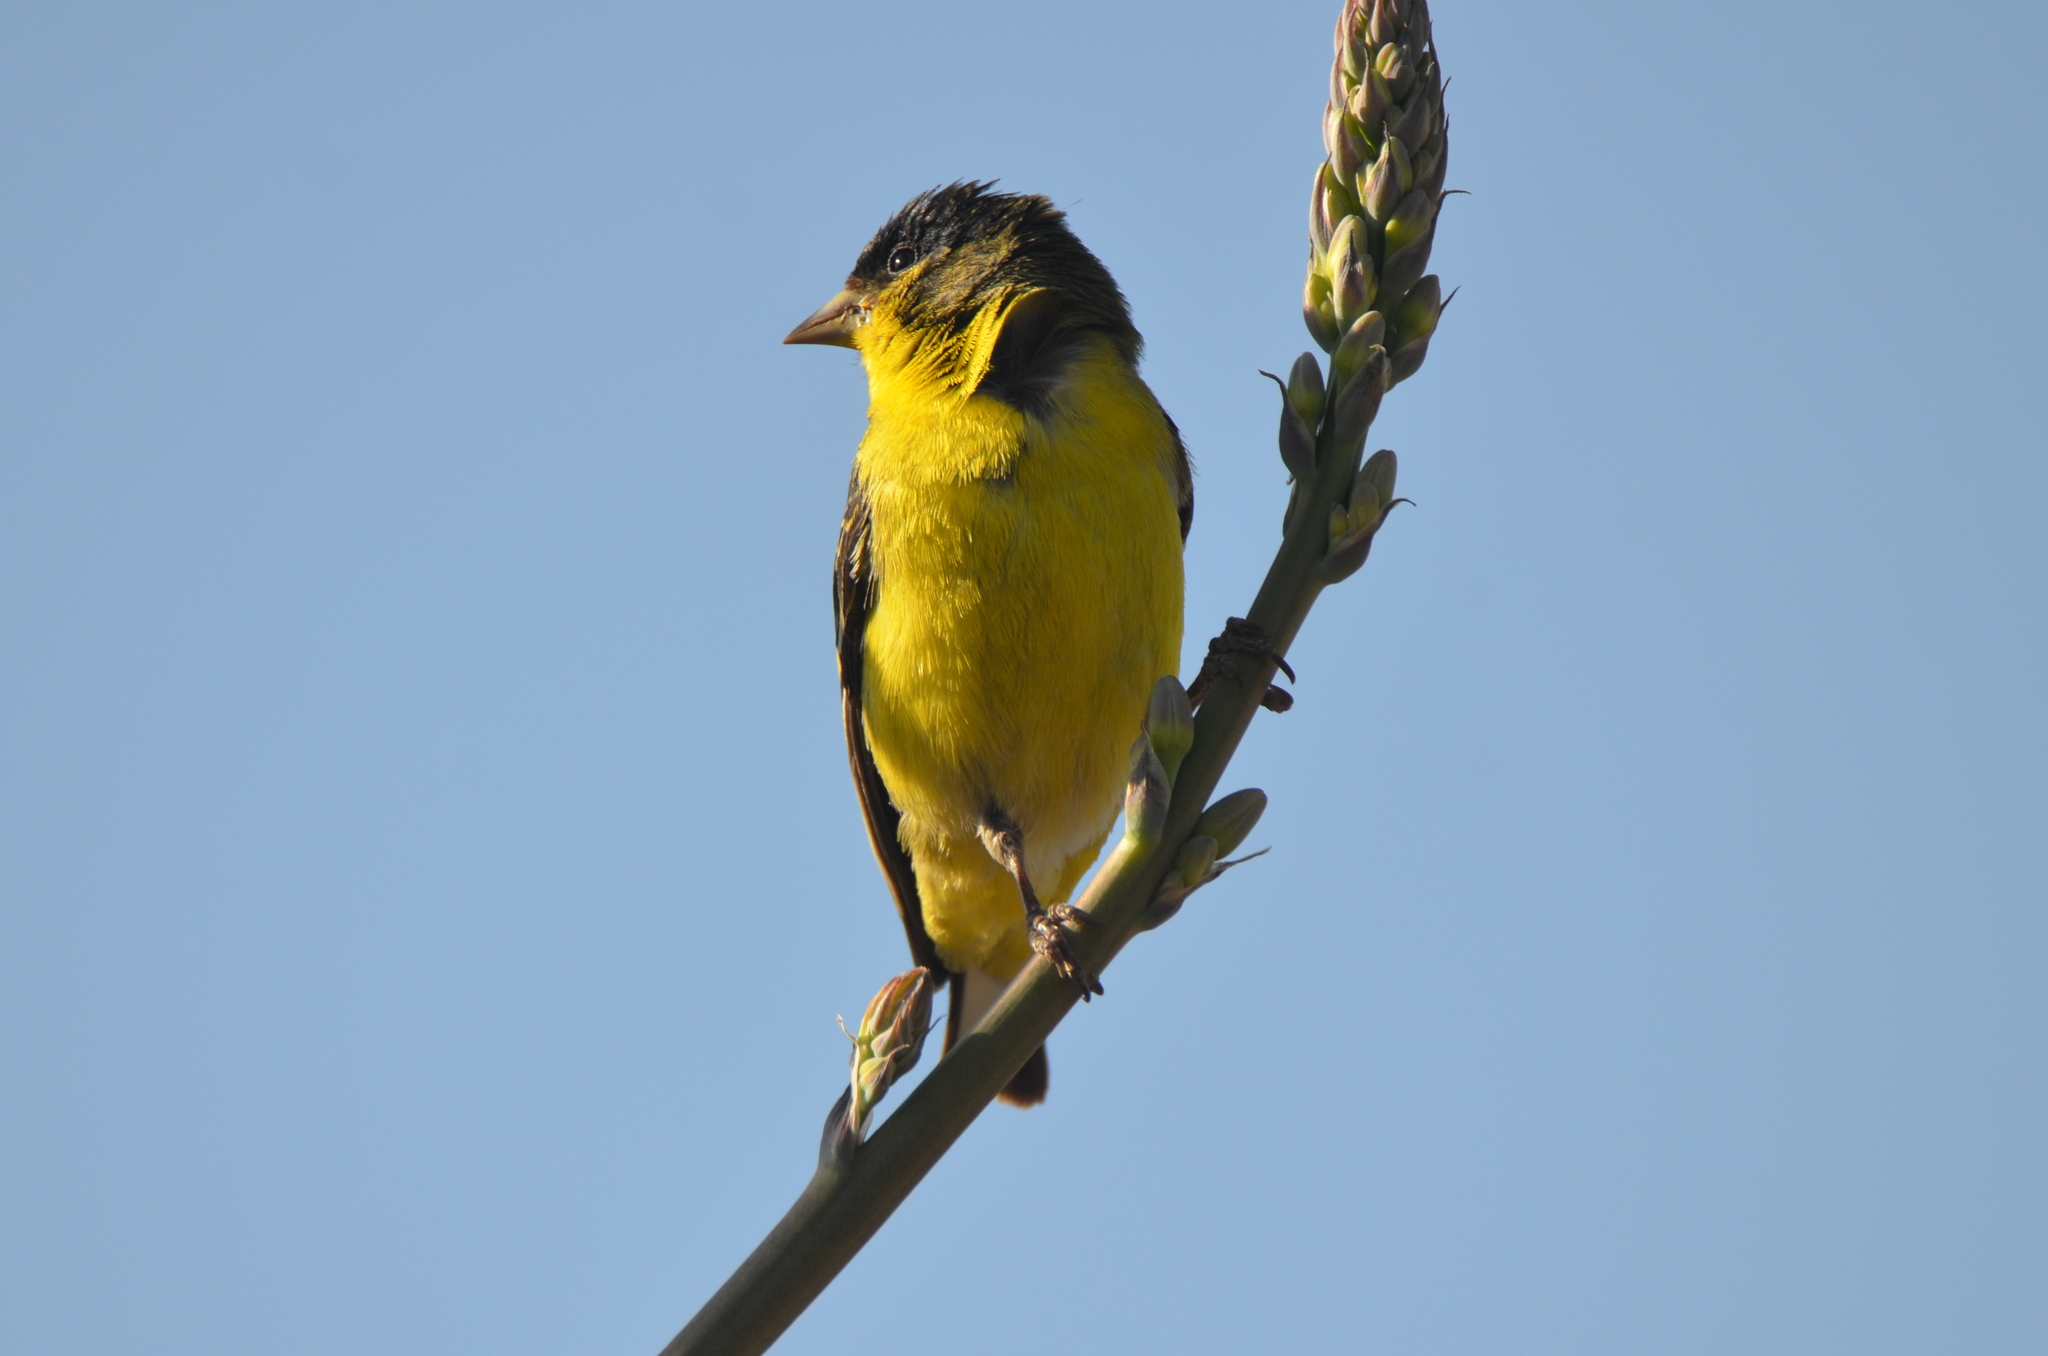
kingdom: Animalia
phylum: Chordata
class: Aves
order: Passeriformes
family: Fringillidae
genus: Spinus
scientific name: Spinus psaltria
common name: Lesser goldfinch
